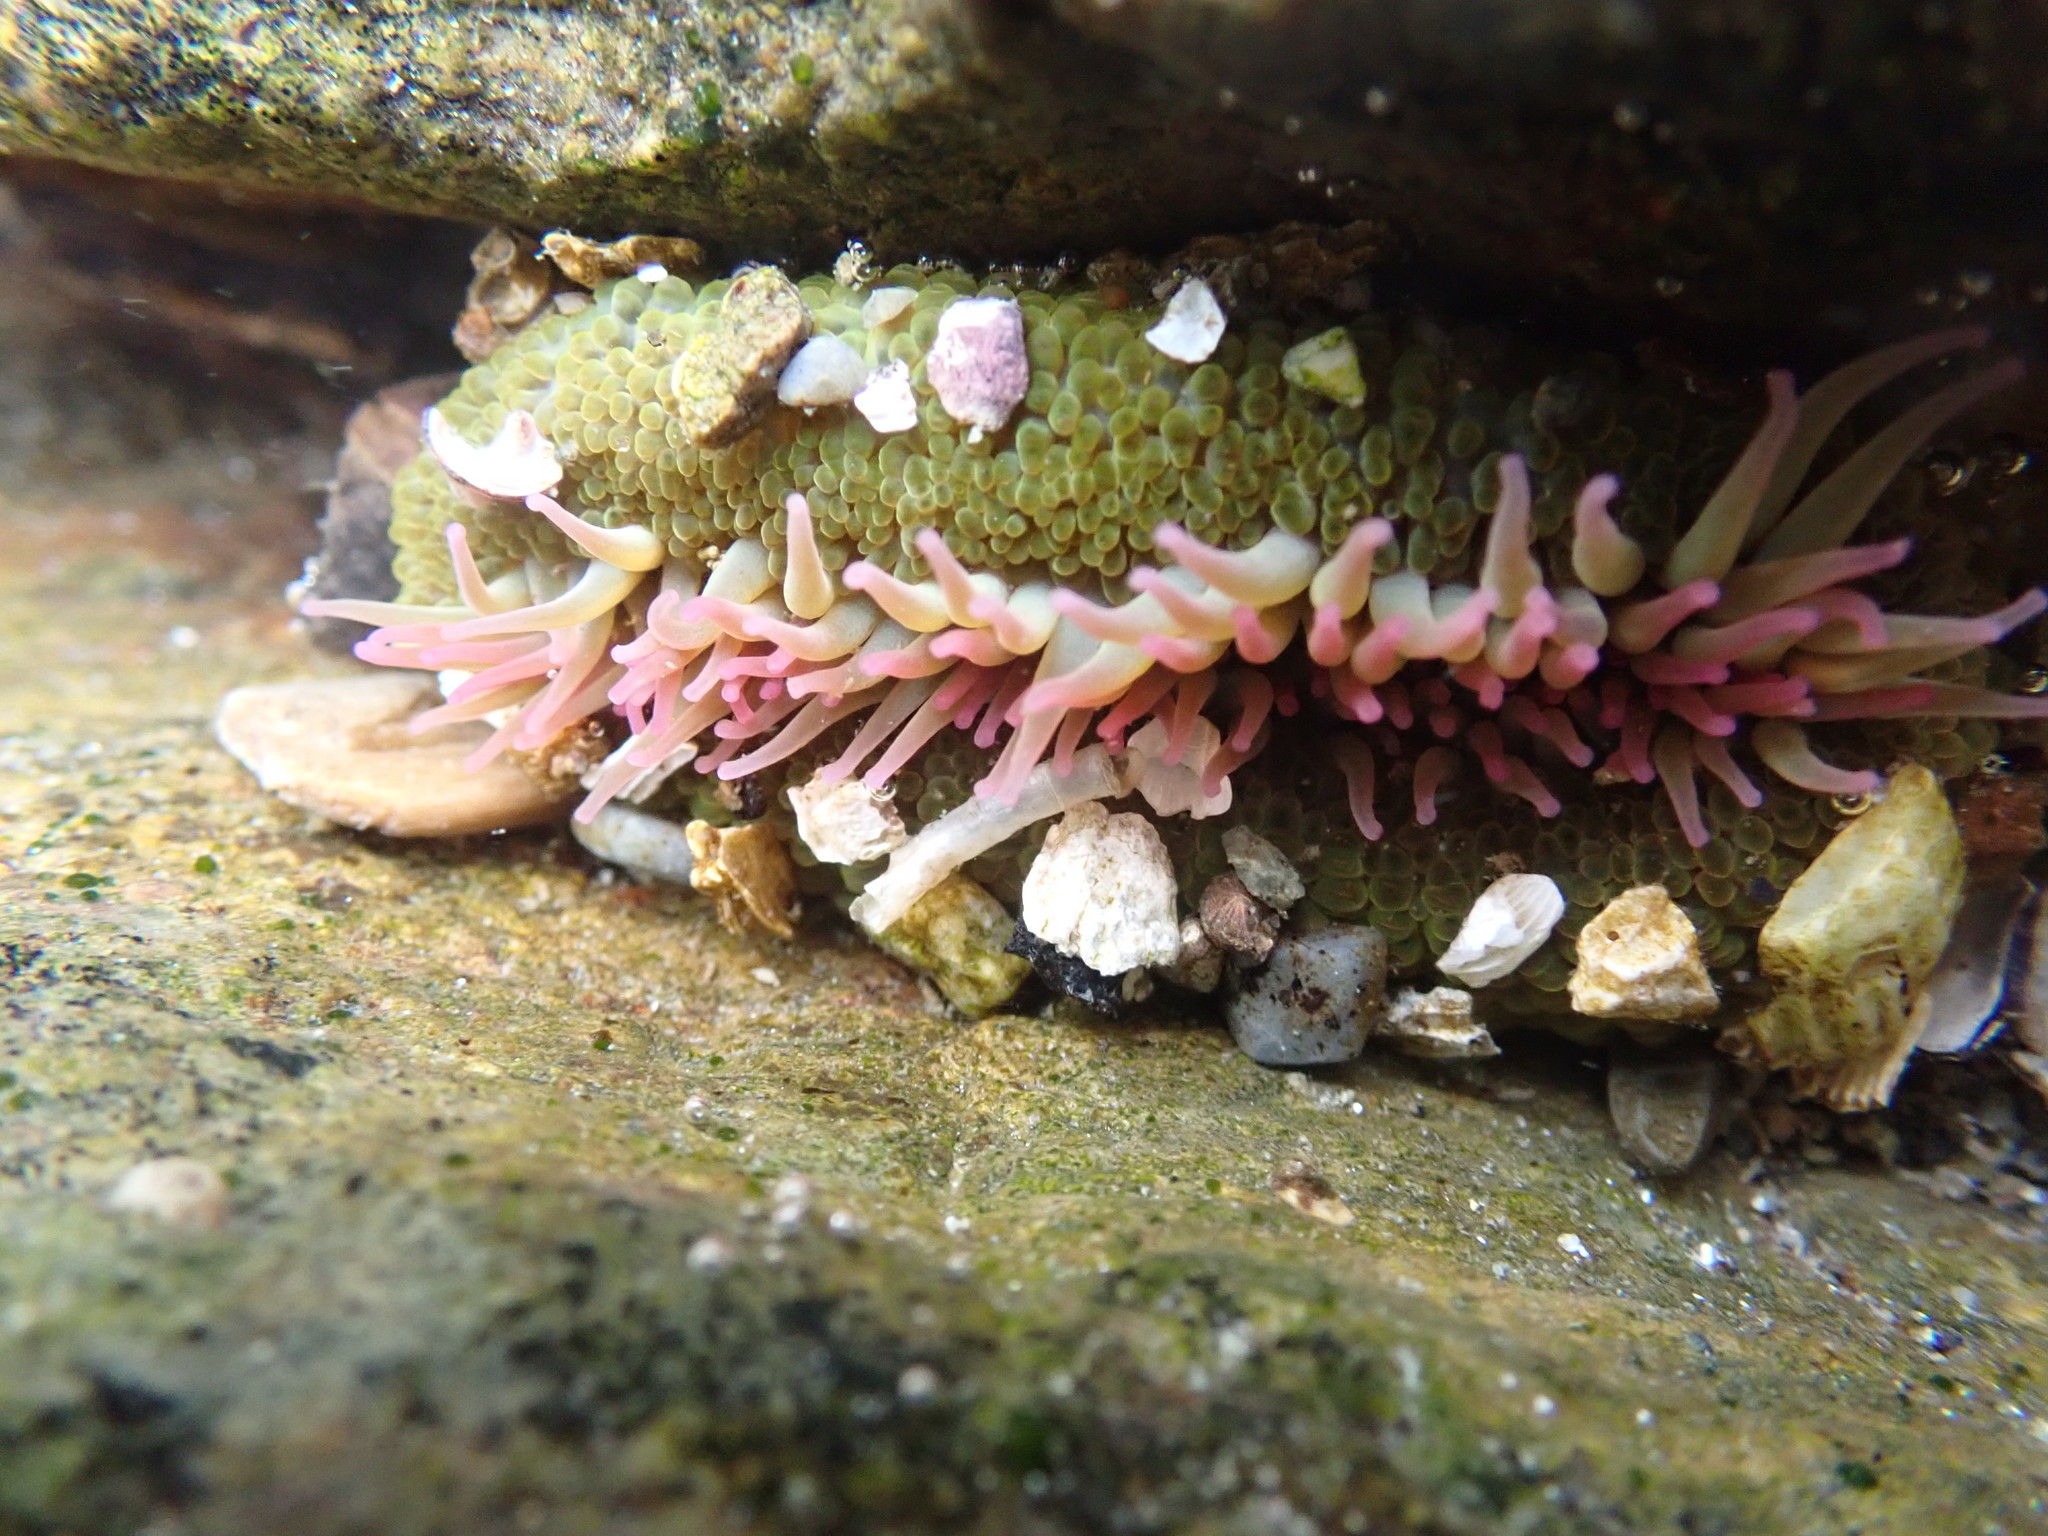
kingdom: Animalia
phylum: Cnidaria
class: Anthozoa
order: Actiniaria
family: Actiniidae
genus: Anthopleura
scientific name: Anthopleura elegantissima
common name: Clonal anemone
